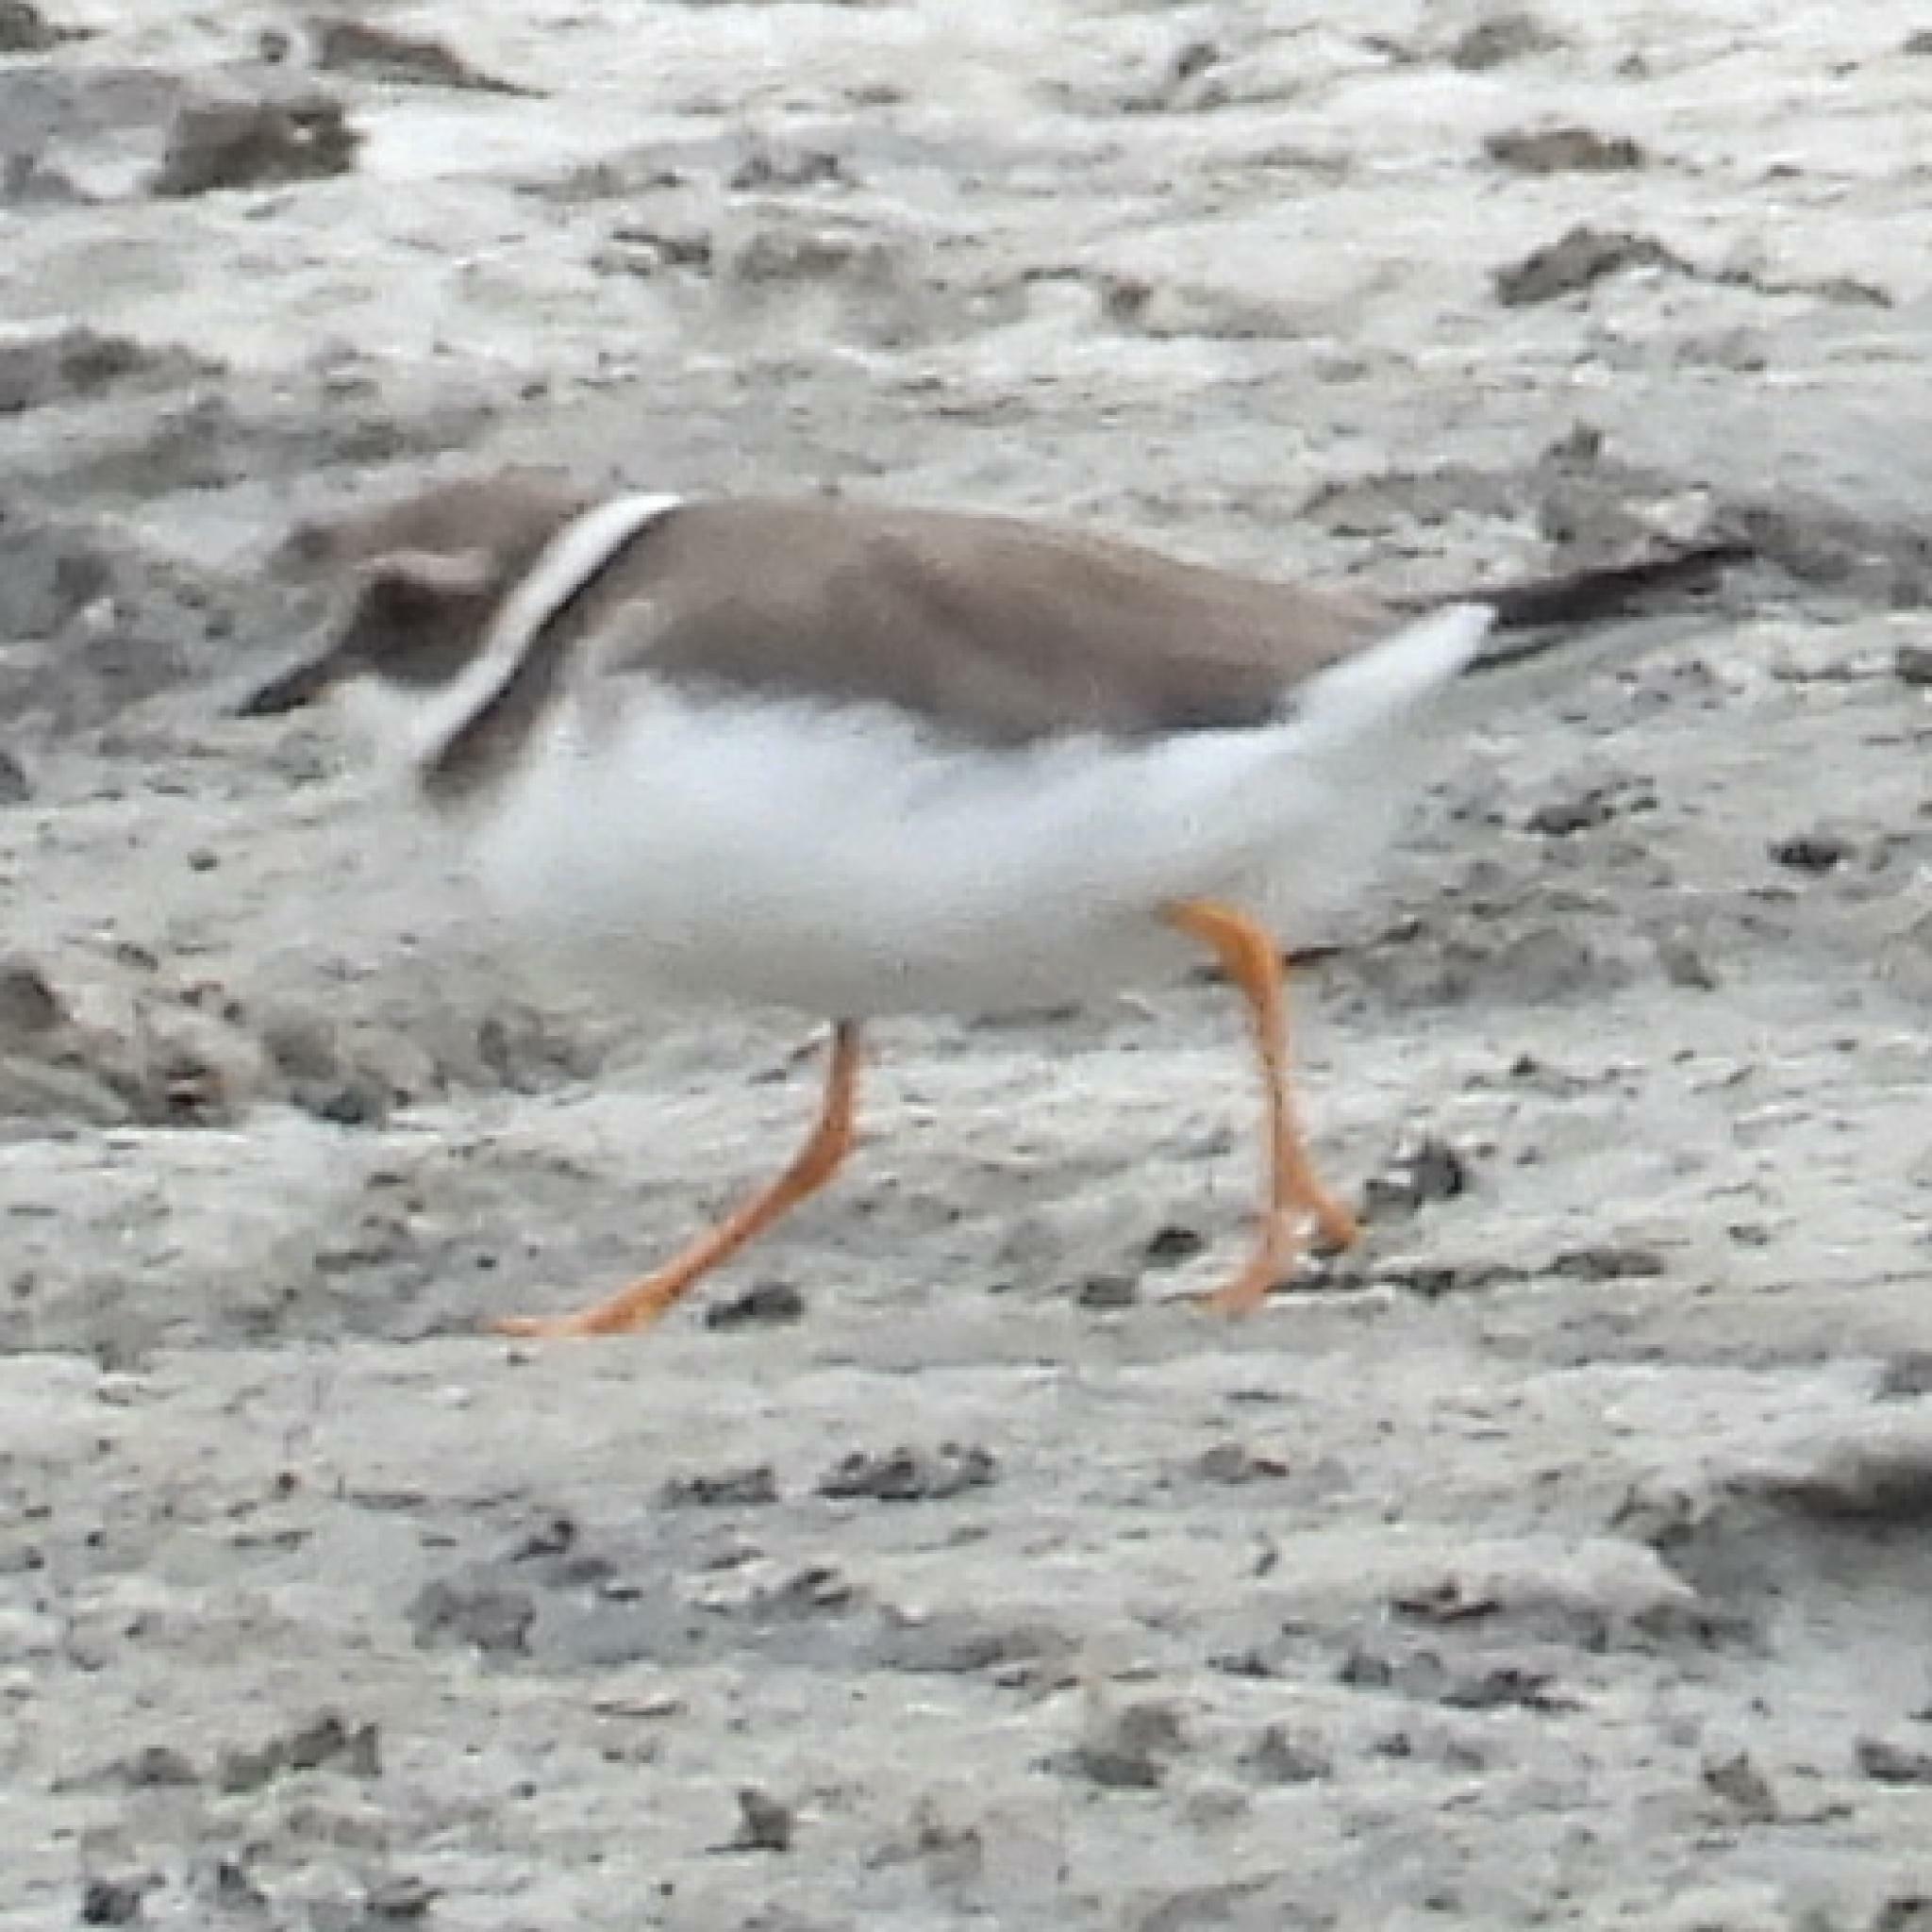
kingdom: Animalia
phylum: Chordata
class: Aves
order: Charadriiformes
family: Charadriidae
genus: Charadrius
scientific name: Charadrius hiaticula
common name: Common ringed plover
